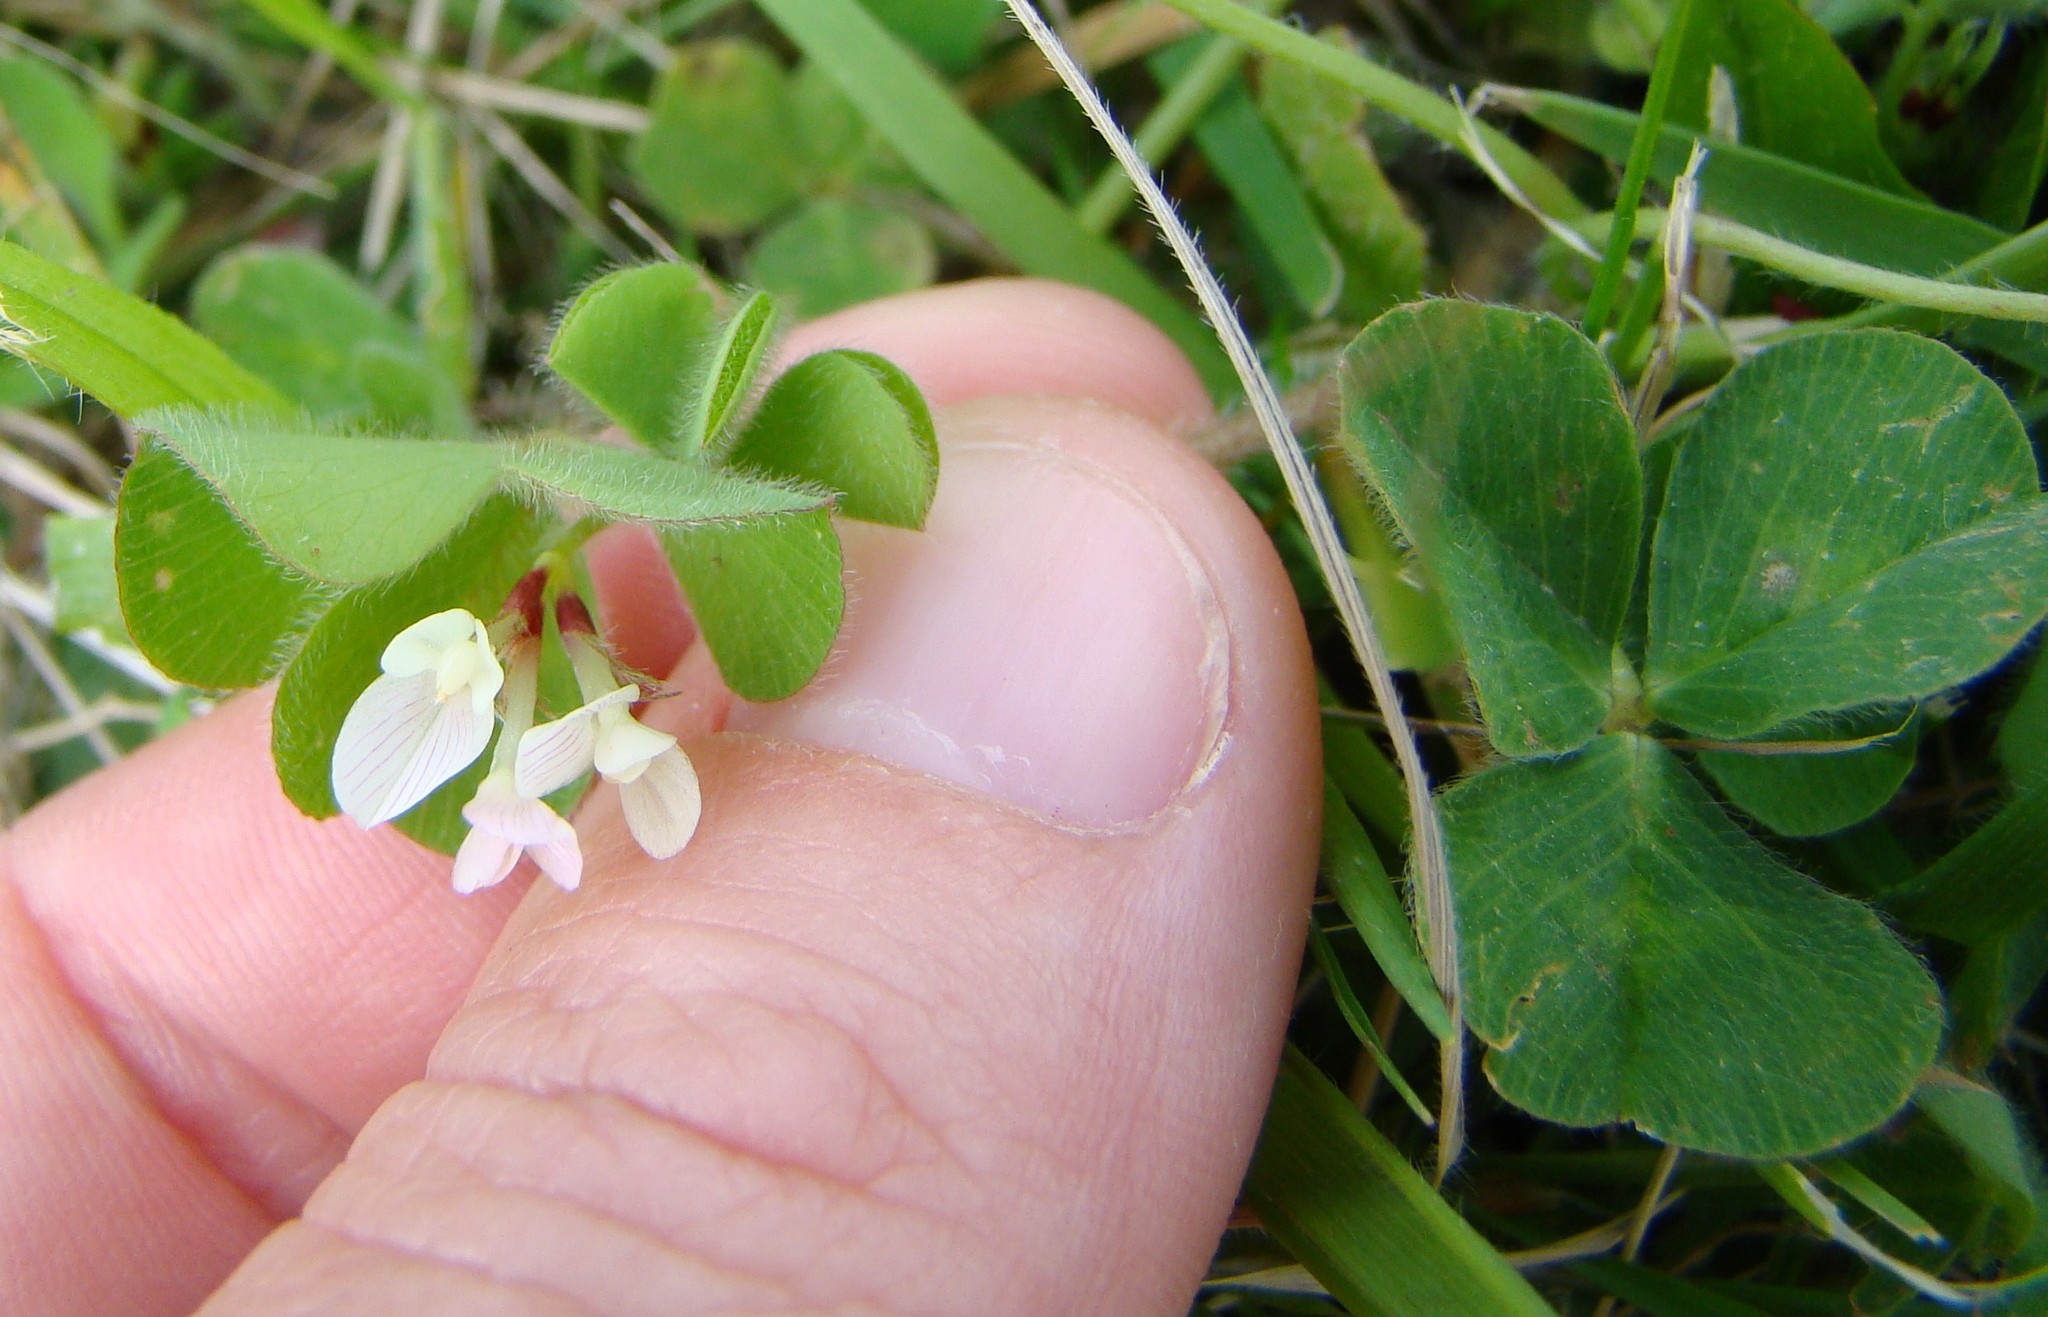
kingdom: Plantae
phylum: Tracheophyta
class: Magnoliopsida
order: Fabales
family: Fabaceae
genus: Trifolium
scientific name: Trifolium subterraneum
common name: Subterranean clover
